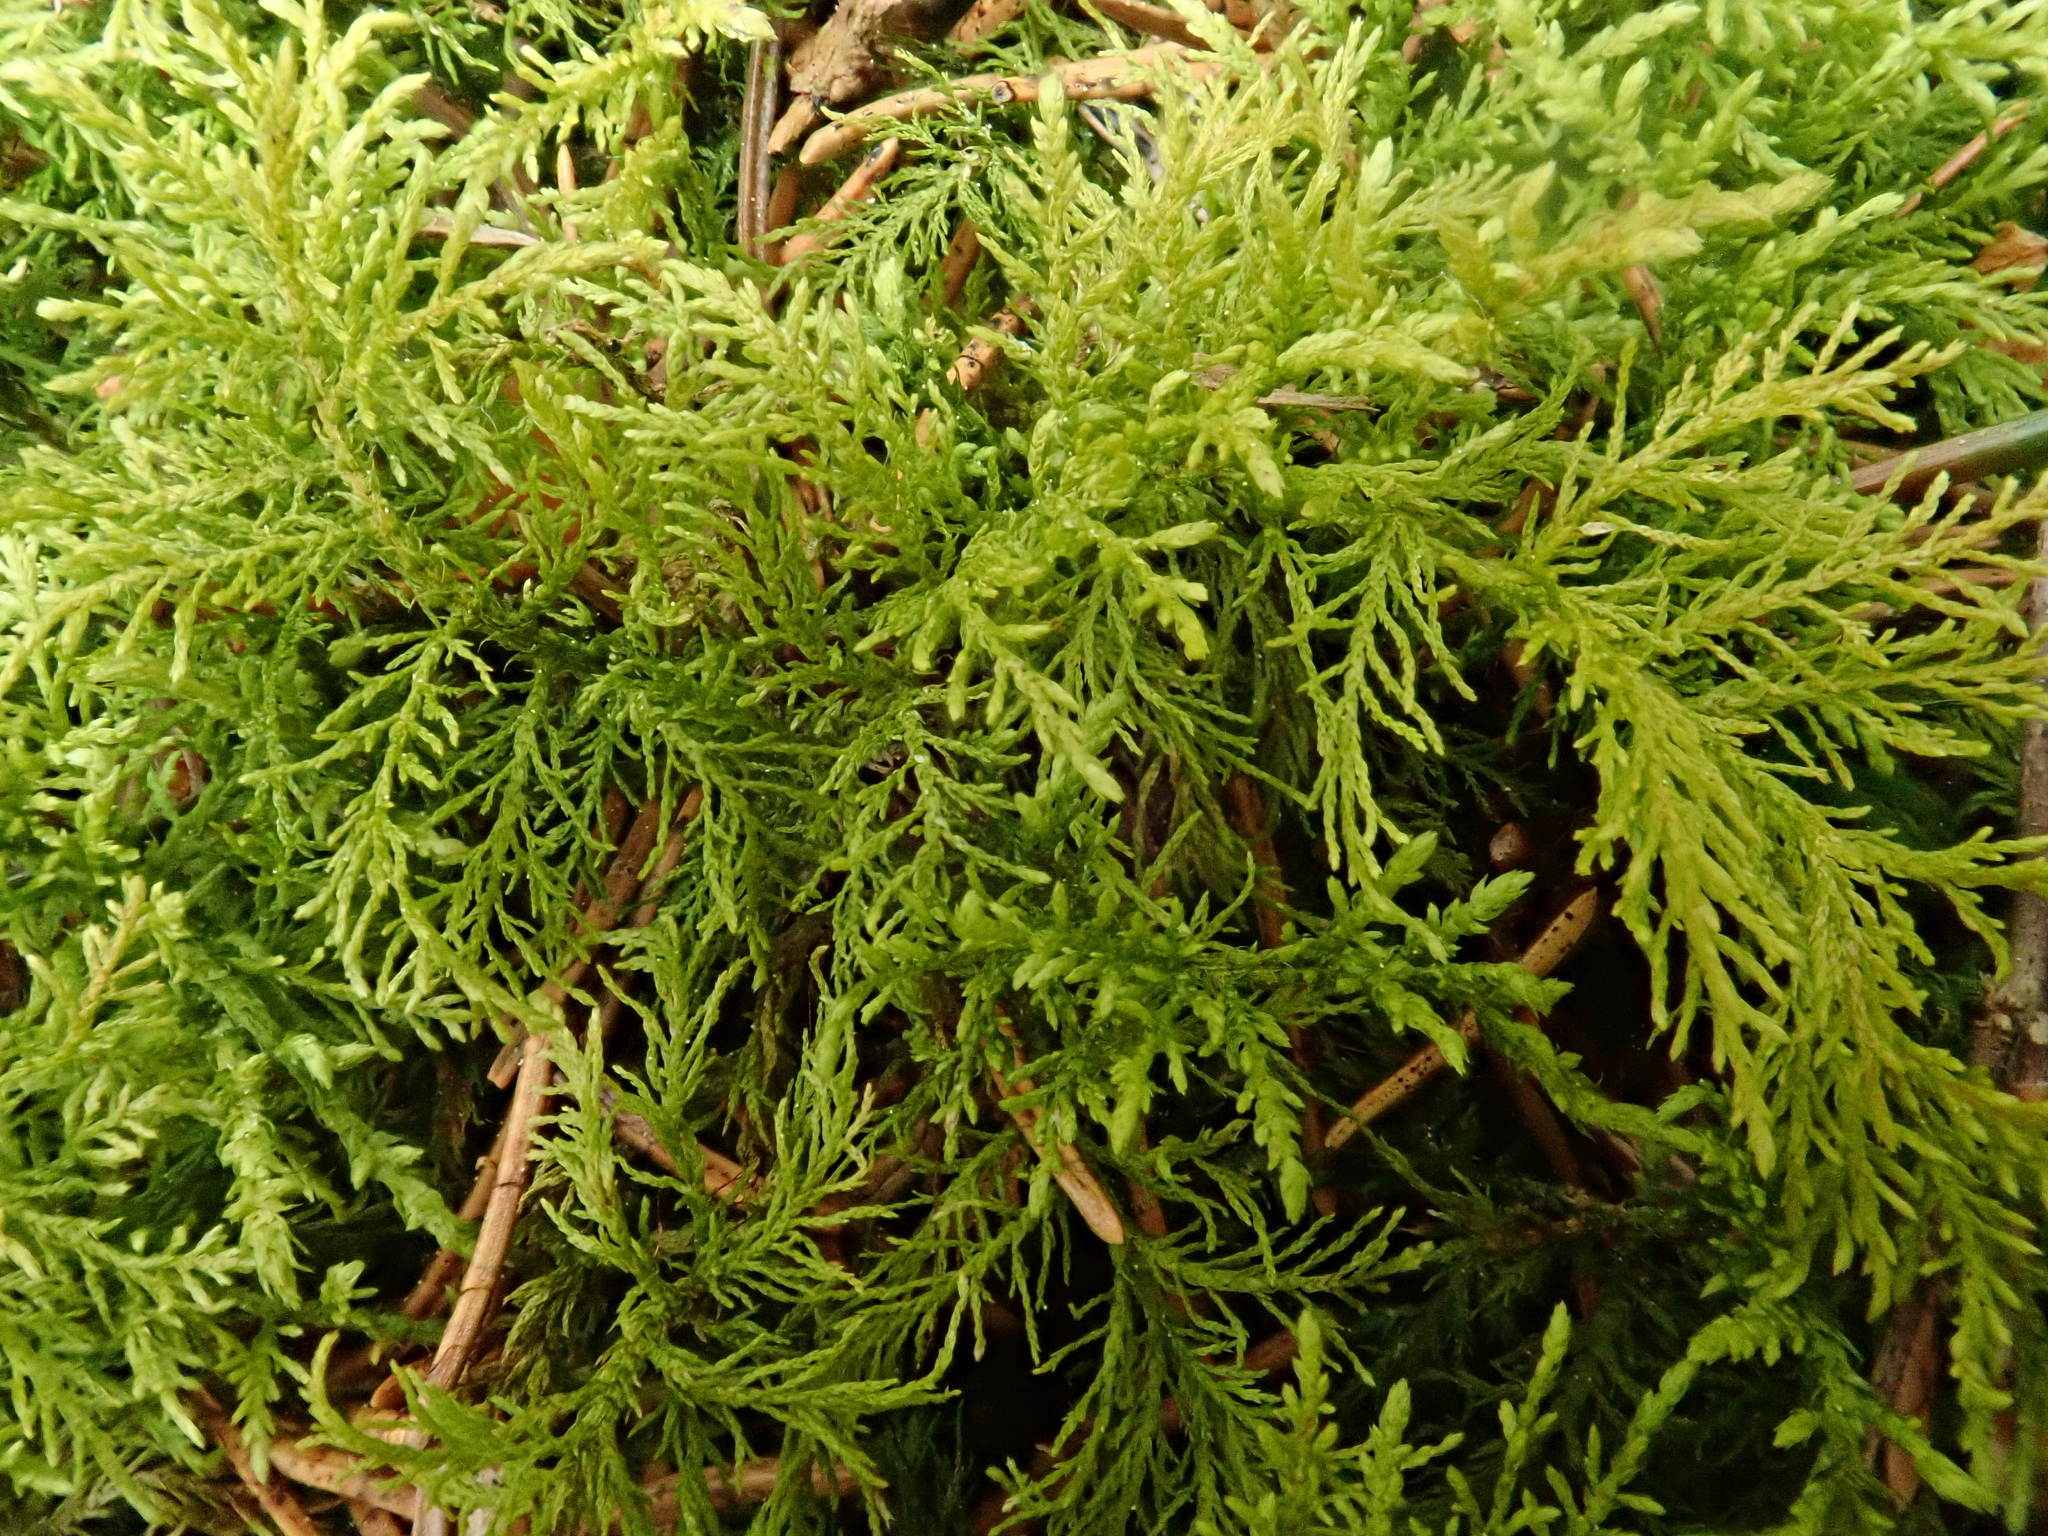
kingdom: Plantae
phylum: Bryophyta
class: Bryopsida
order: Hypnales
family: Thuidiaceae
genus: Thuidium
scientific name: Thuidium tamariscinum
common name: Common tamarisk-moss
